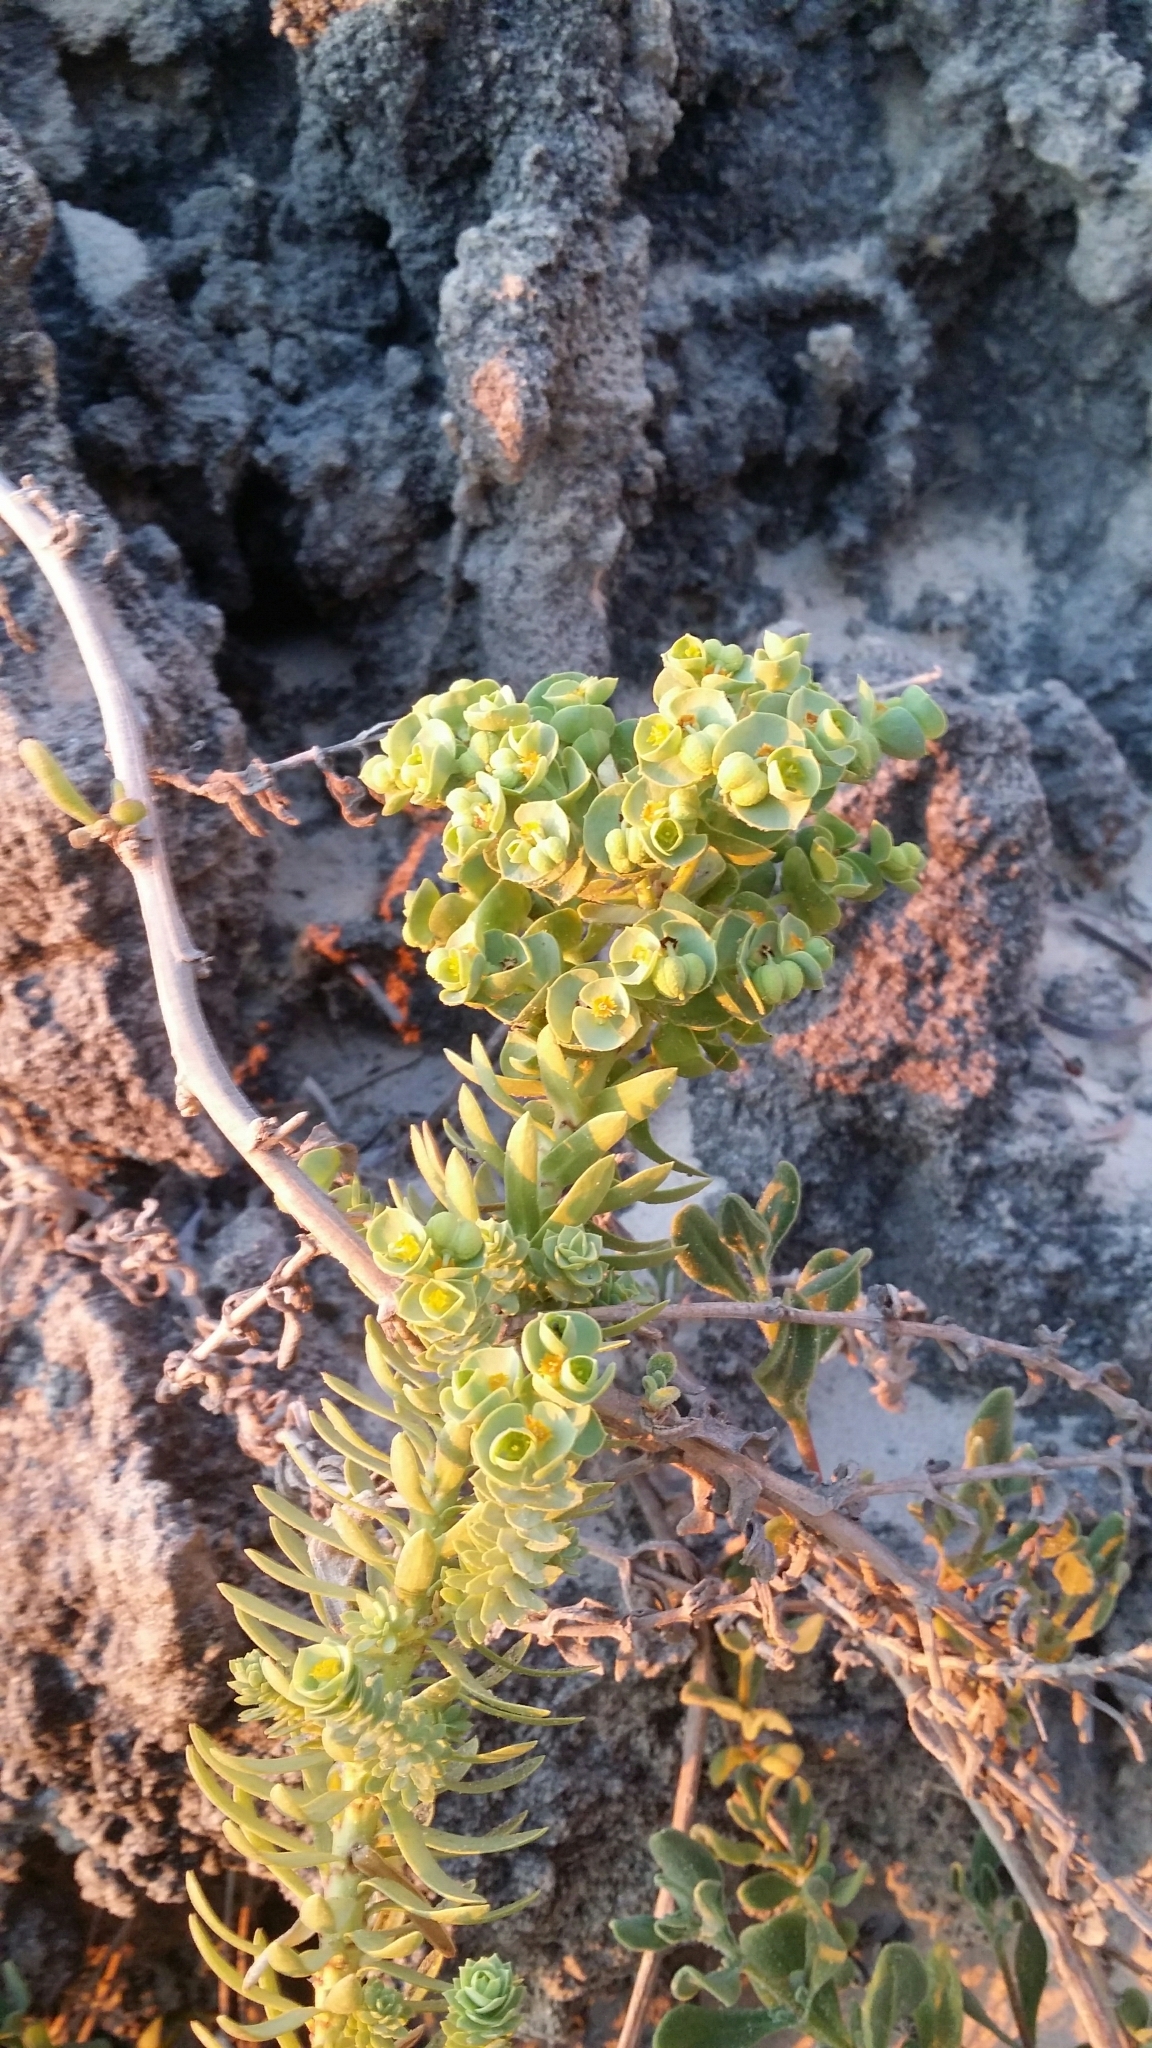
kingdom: Plantae
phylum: Tracheophyta
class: Magnoliopsida
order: Malpighiales
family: Euphorbiaceae
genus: Euphorbia
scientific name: Euphorbia paralias
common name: Sea spurge
